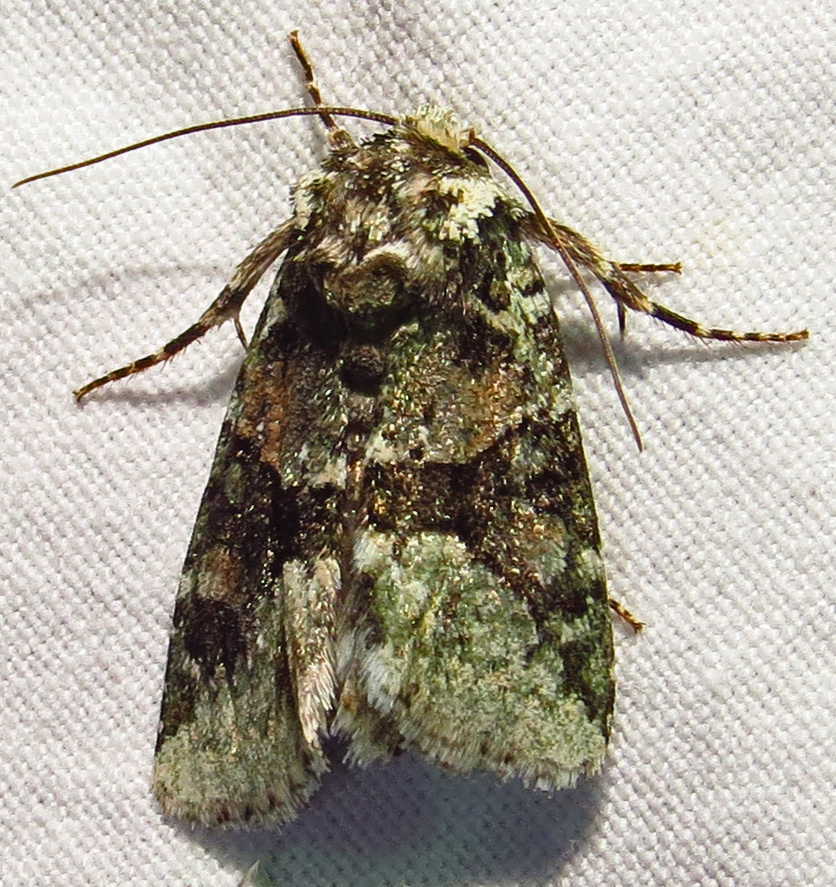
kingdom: Animalia
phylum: Arthropoda
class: Insecta
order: Lepidoptera
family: Noctuidae
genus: Lacinipolia
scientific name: Lacinipolia explicata
